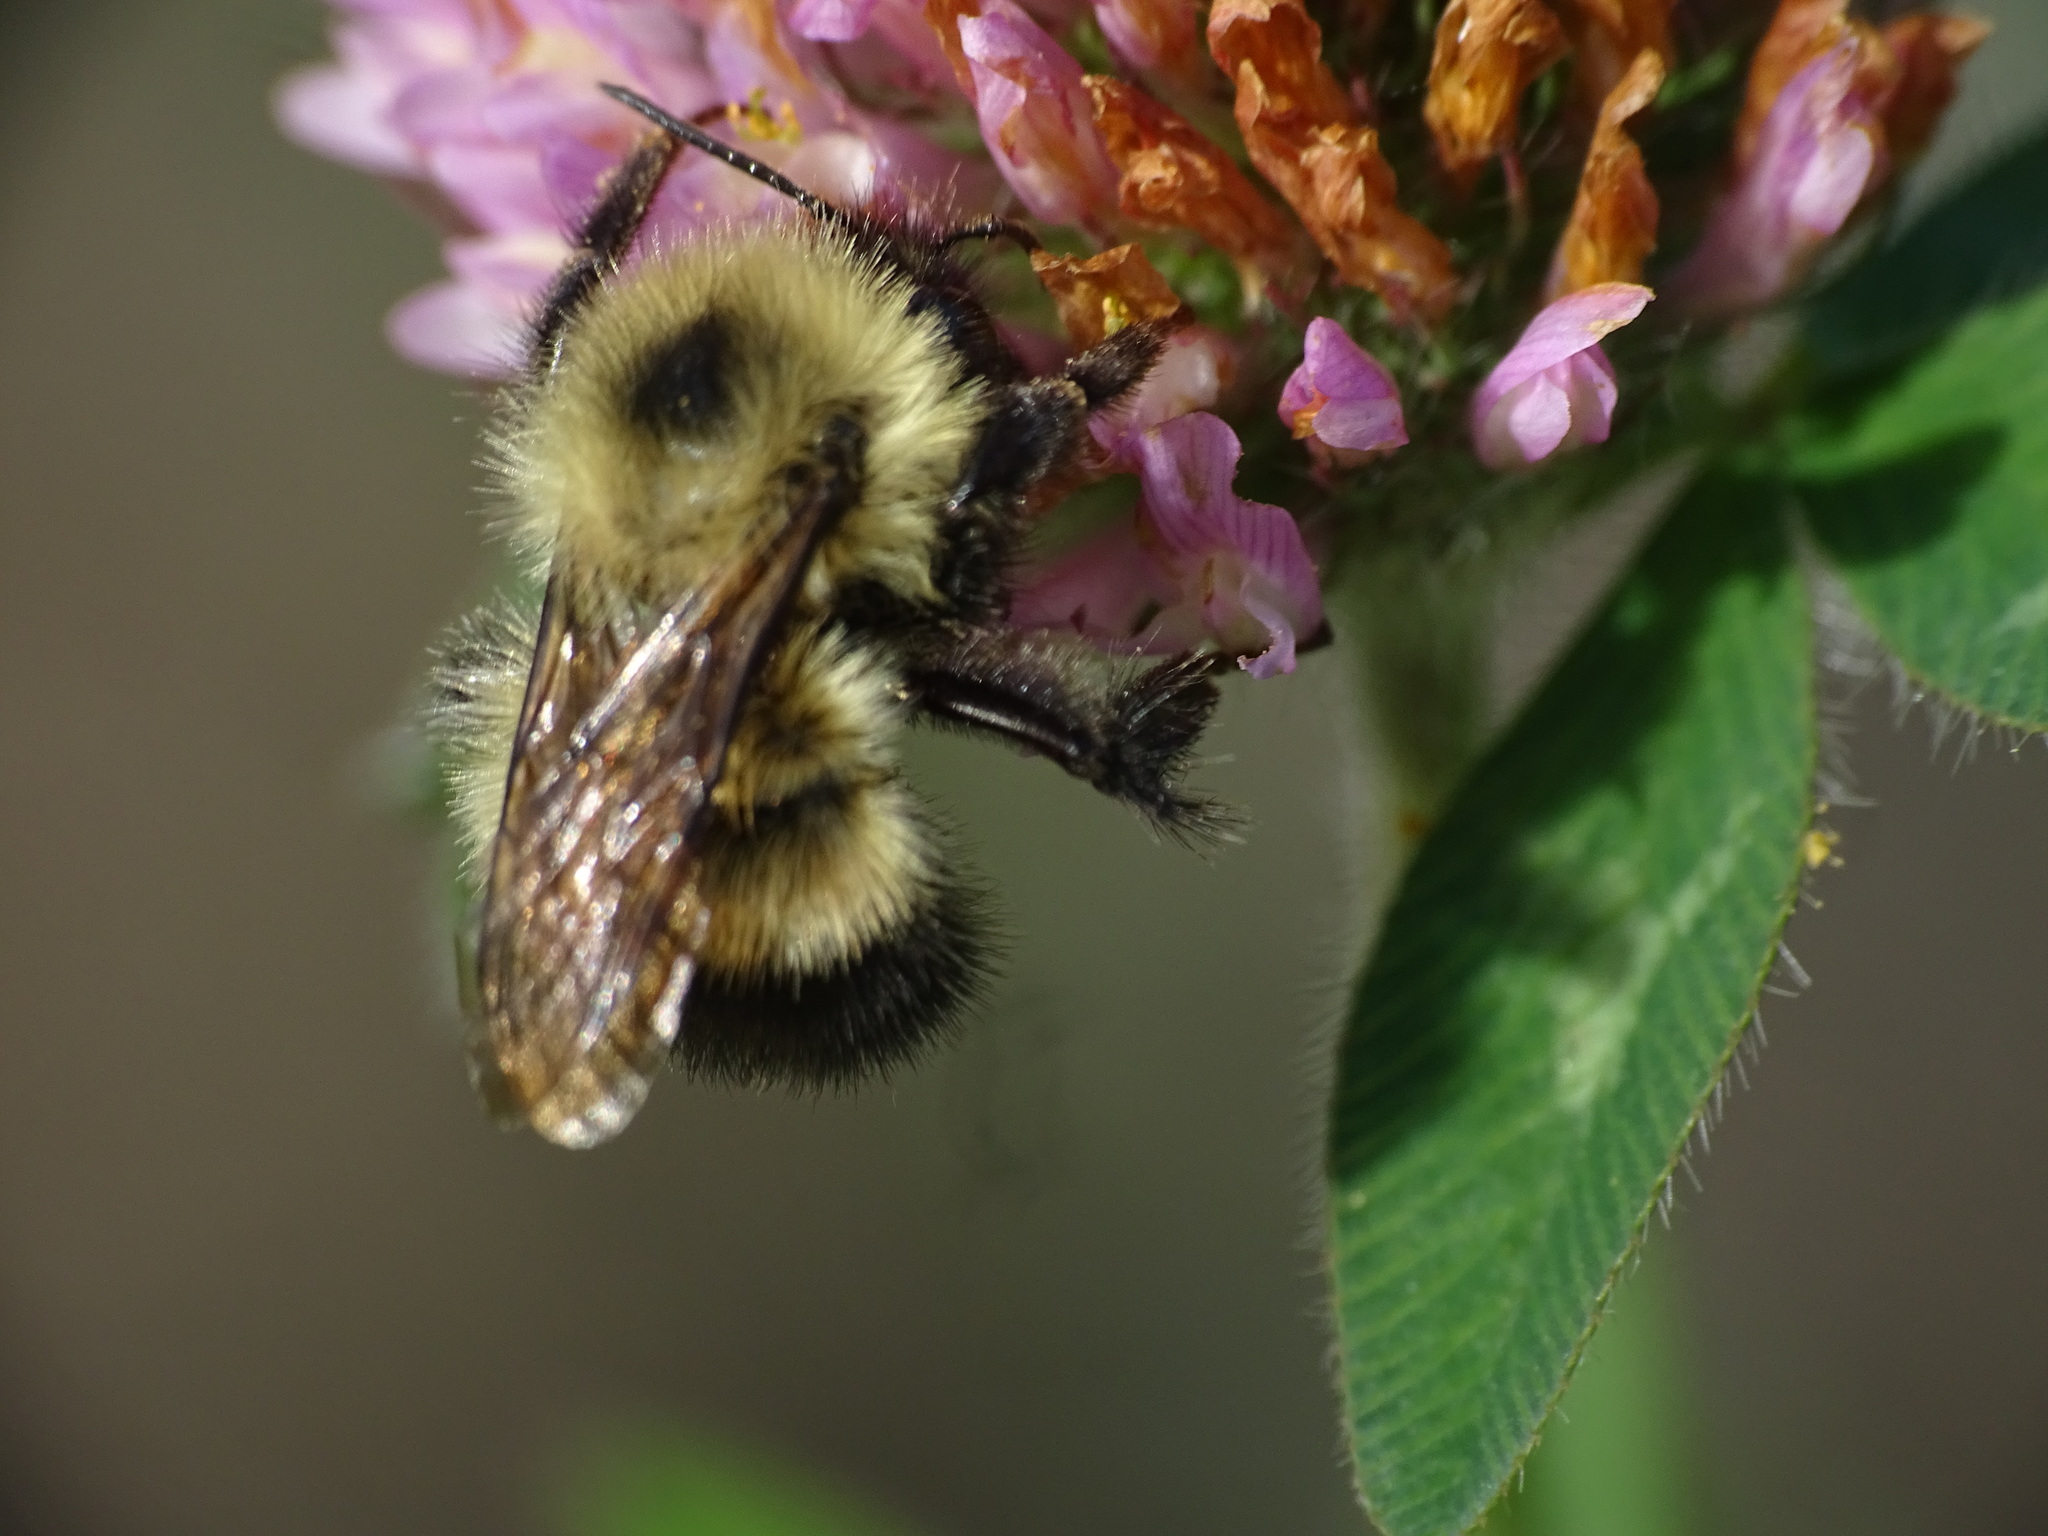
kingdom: Animalia
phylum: Arthropoda
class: Insecta
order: Hymenoptera
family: Apidae
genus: Bombus
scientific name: Bombus vagans
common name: Half-black bumble bee
